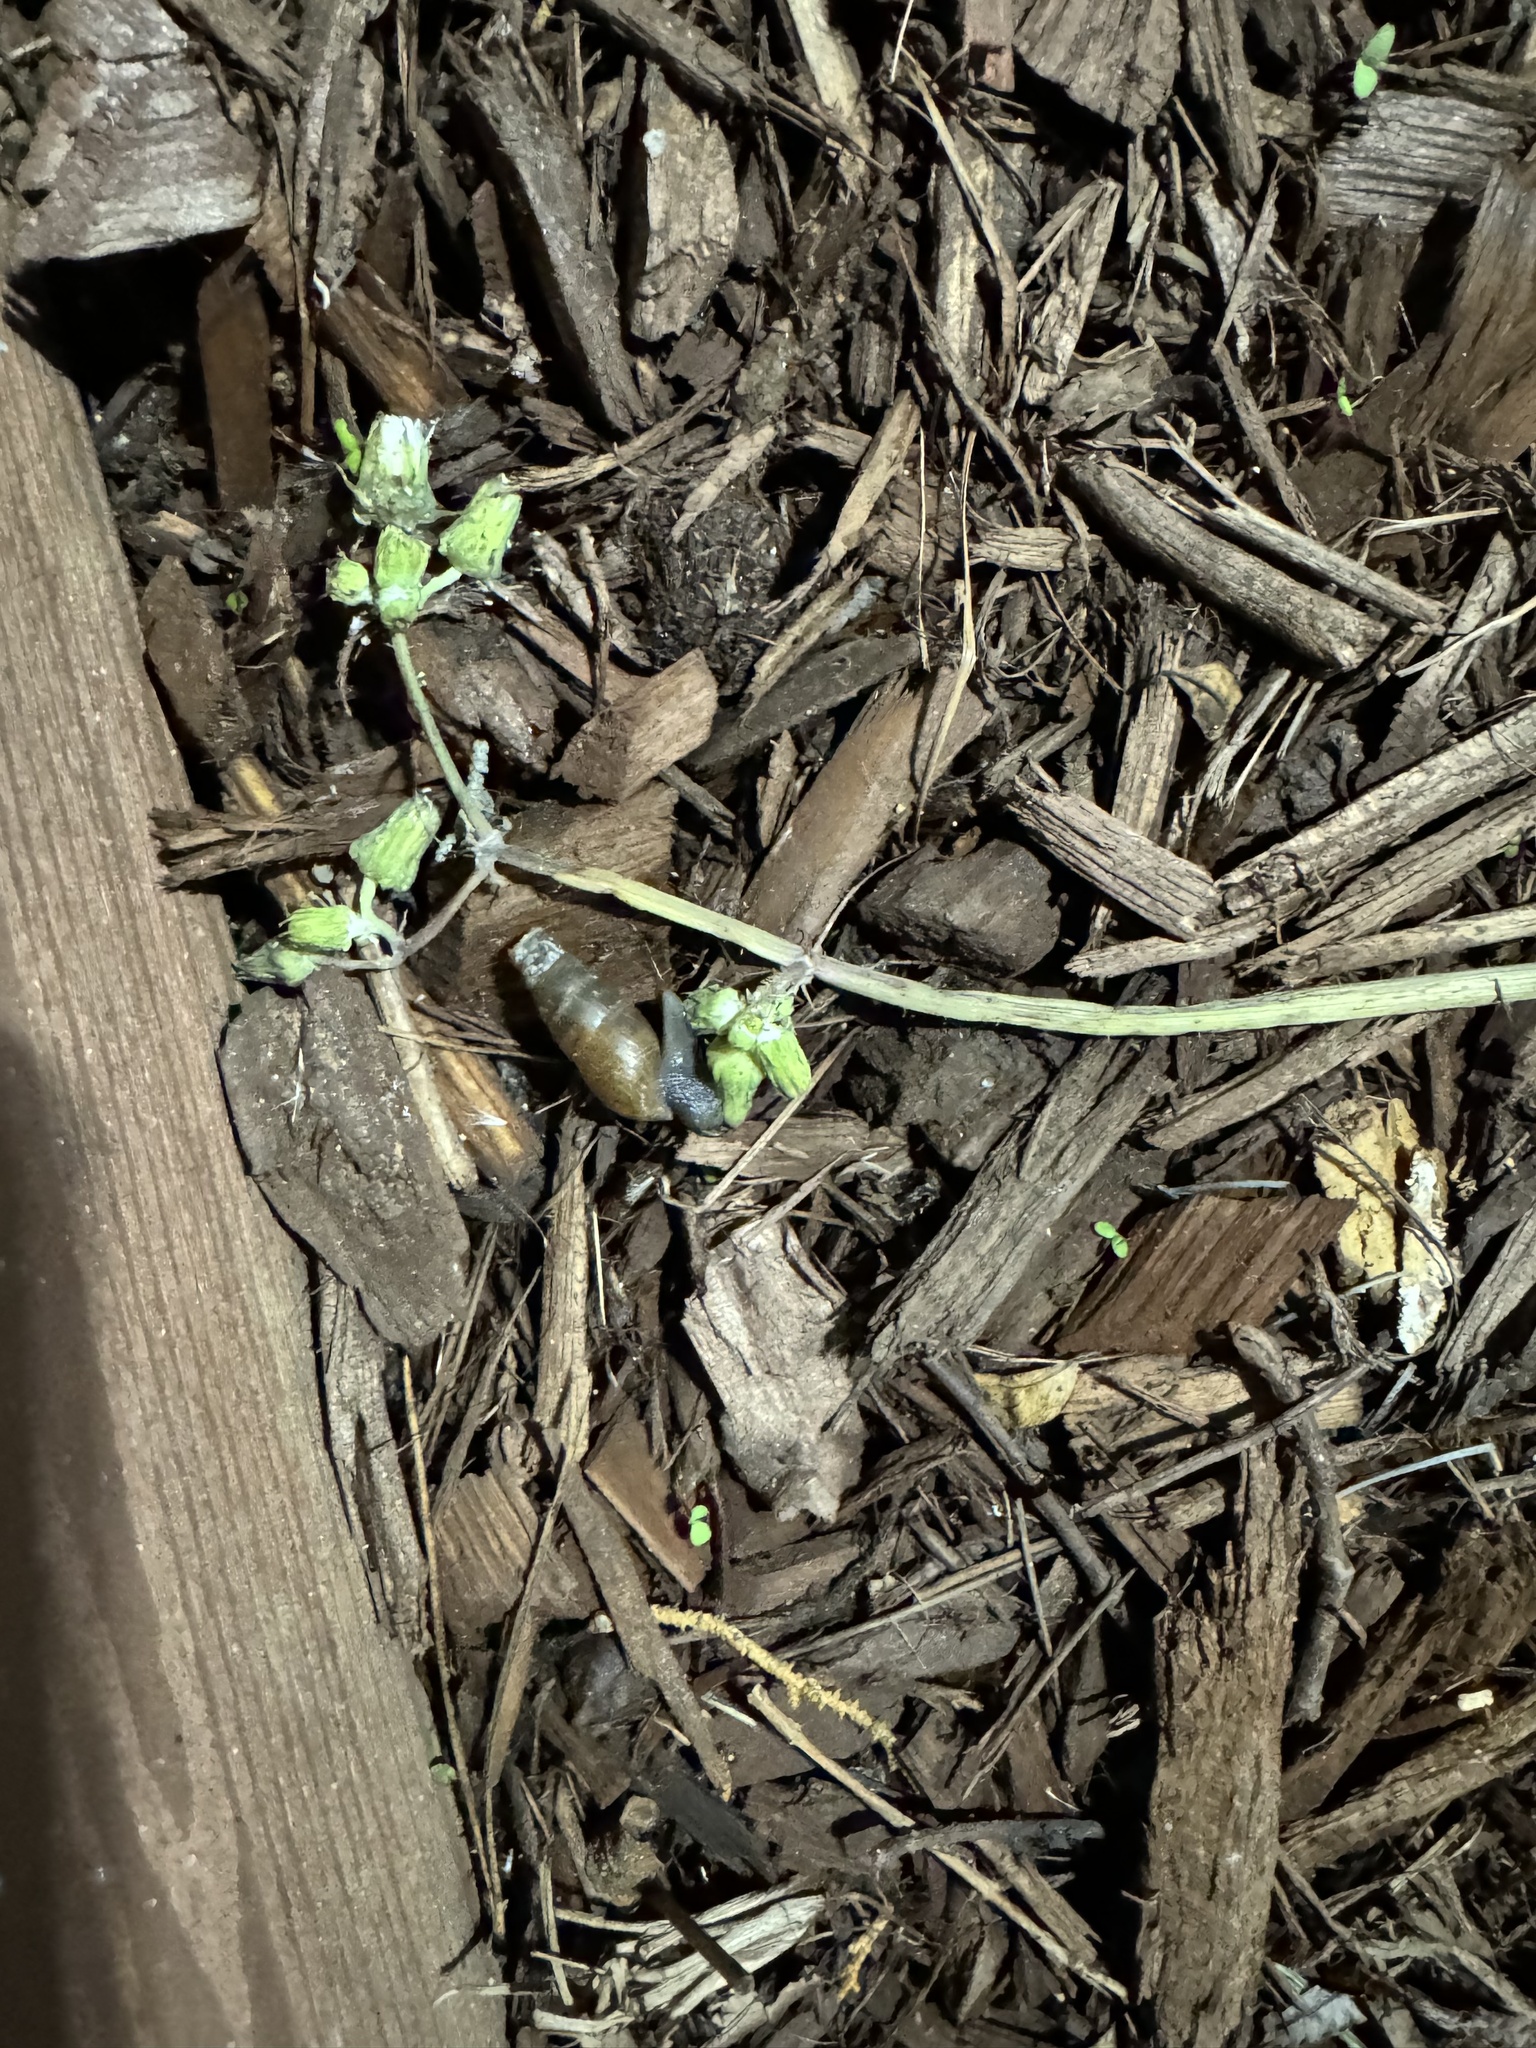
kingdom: Animalia
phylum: Mollusca
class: Gastropoda
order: Stylommatophora
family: Achatinidae
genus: Rumina
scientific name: Rumina decollata
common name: Decollate snail
